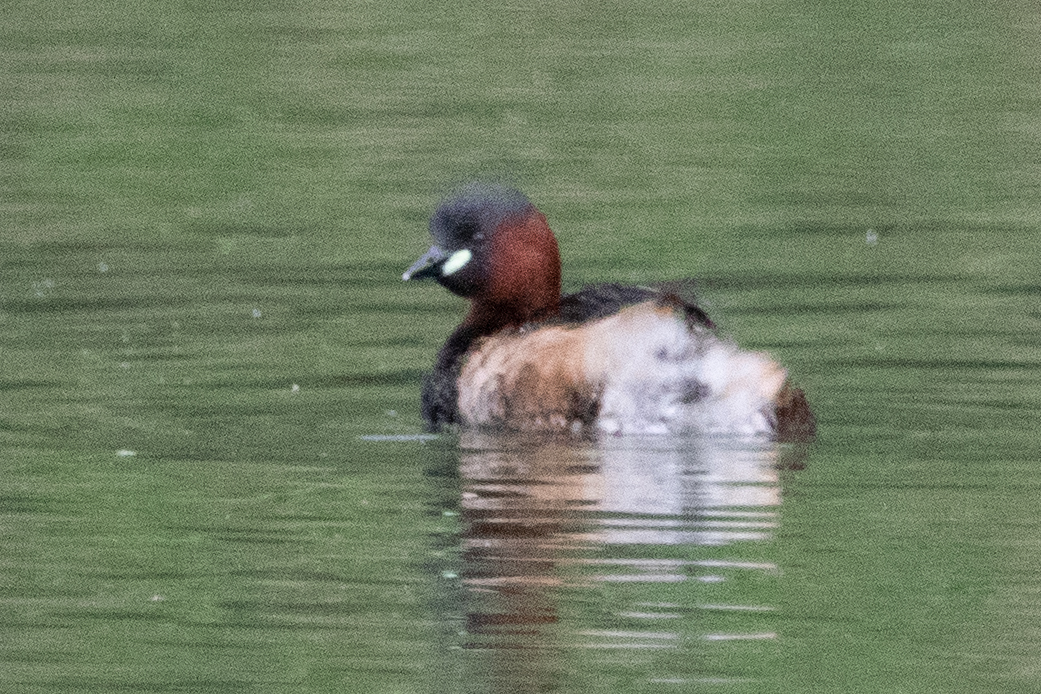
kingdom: Animalia
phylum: Chordata
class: Aves
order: Podicipediformes
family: Podicipedidae
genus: Tachybaptus
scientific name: Tachybaptus ruficollis
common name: Little grebe
